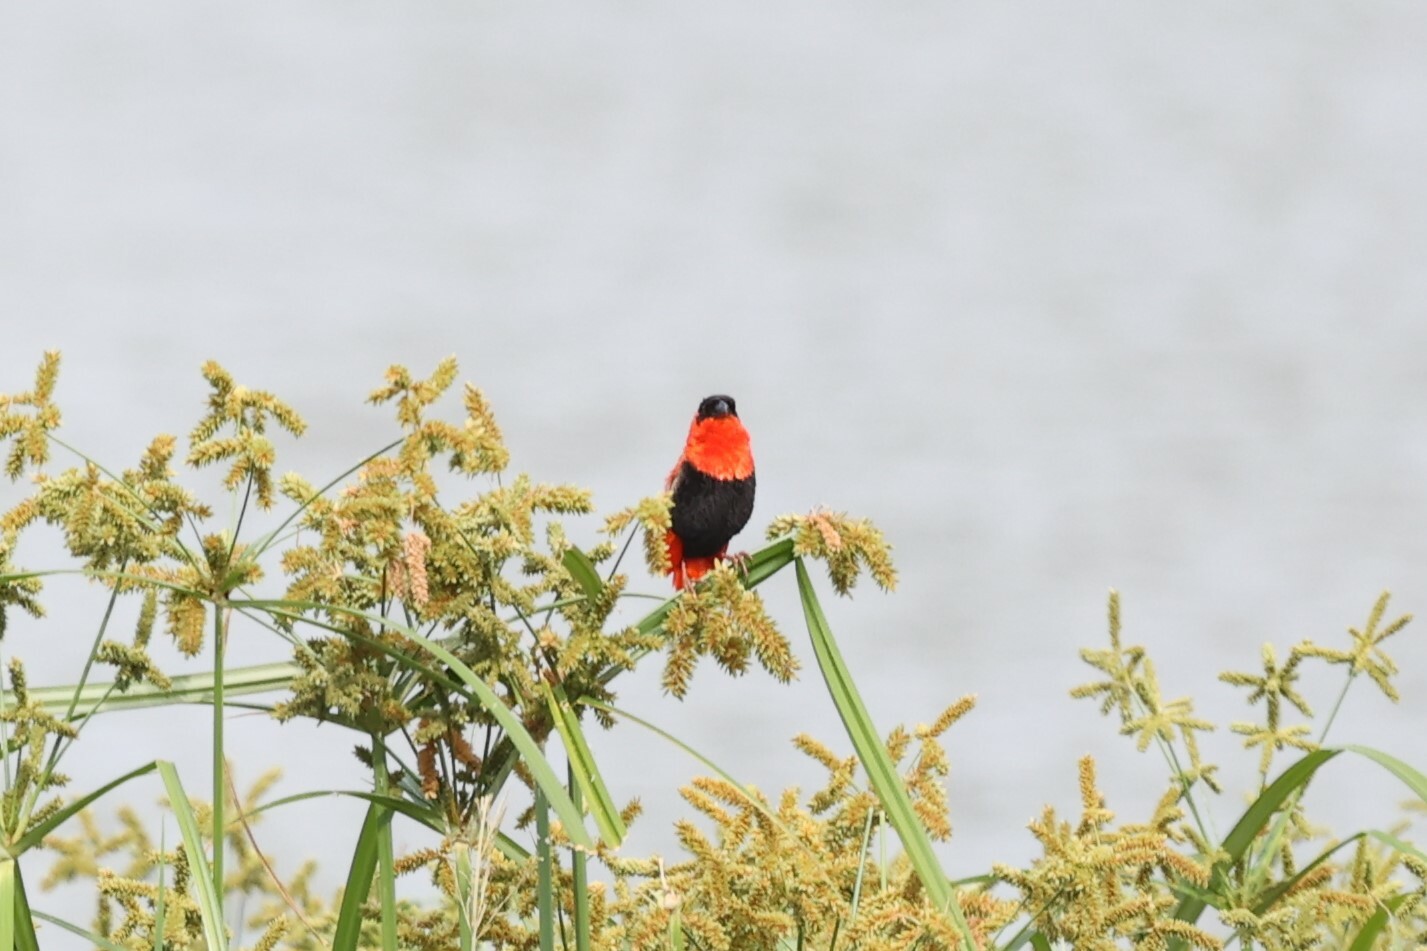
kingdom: Animalia
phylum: Chordata
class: Aves
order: Passeriformes
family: Ploceidae
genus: Euplectes
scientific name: Euplectes franciscanus
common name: Northern red bishop
